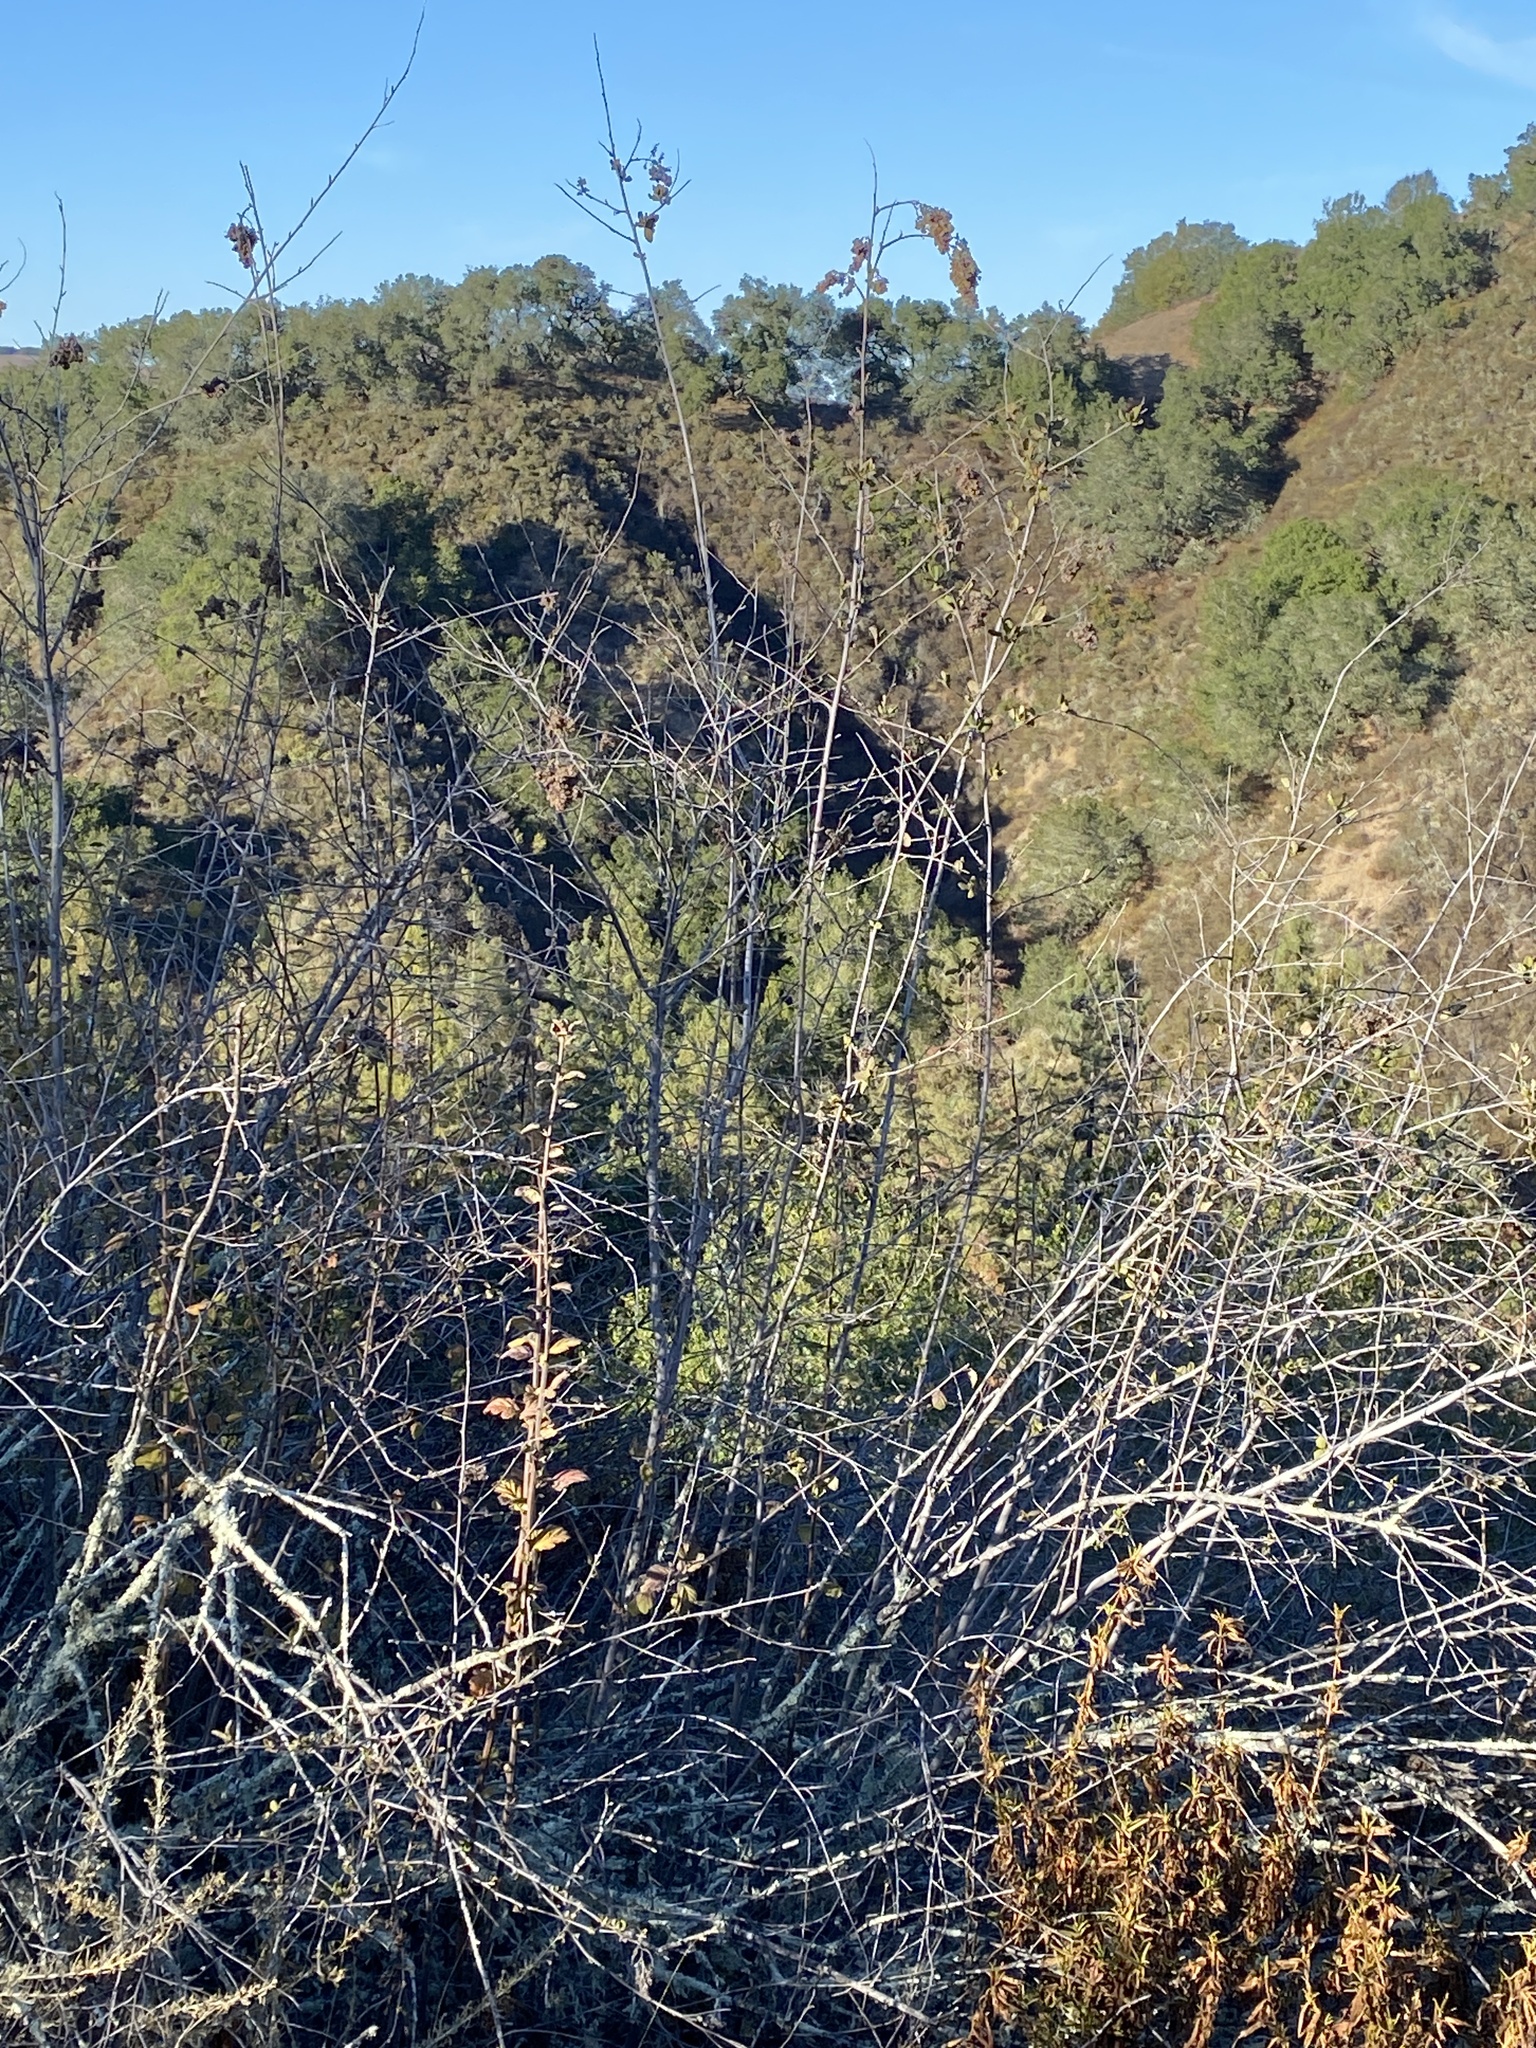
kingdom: Plantae
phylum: Tracheophyta
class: Magnoliopsida
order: Rosales
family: Rosaceae
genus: Holodiscus
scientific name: Holodiscus discolor
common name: Oceanspray
